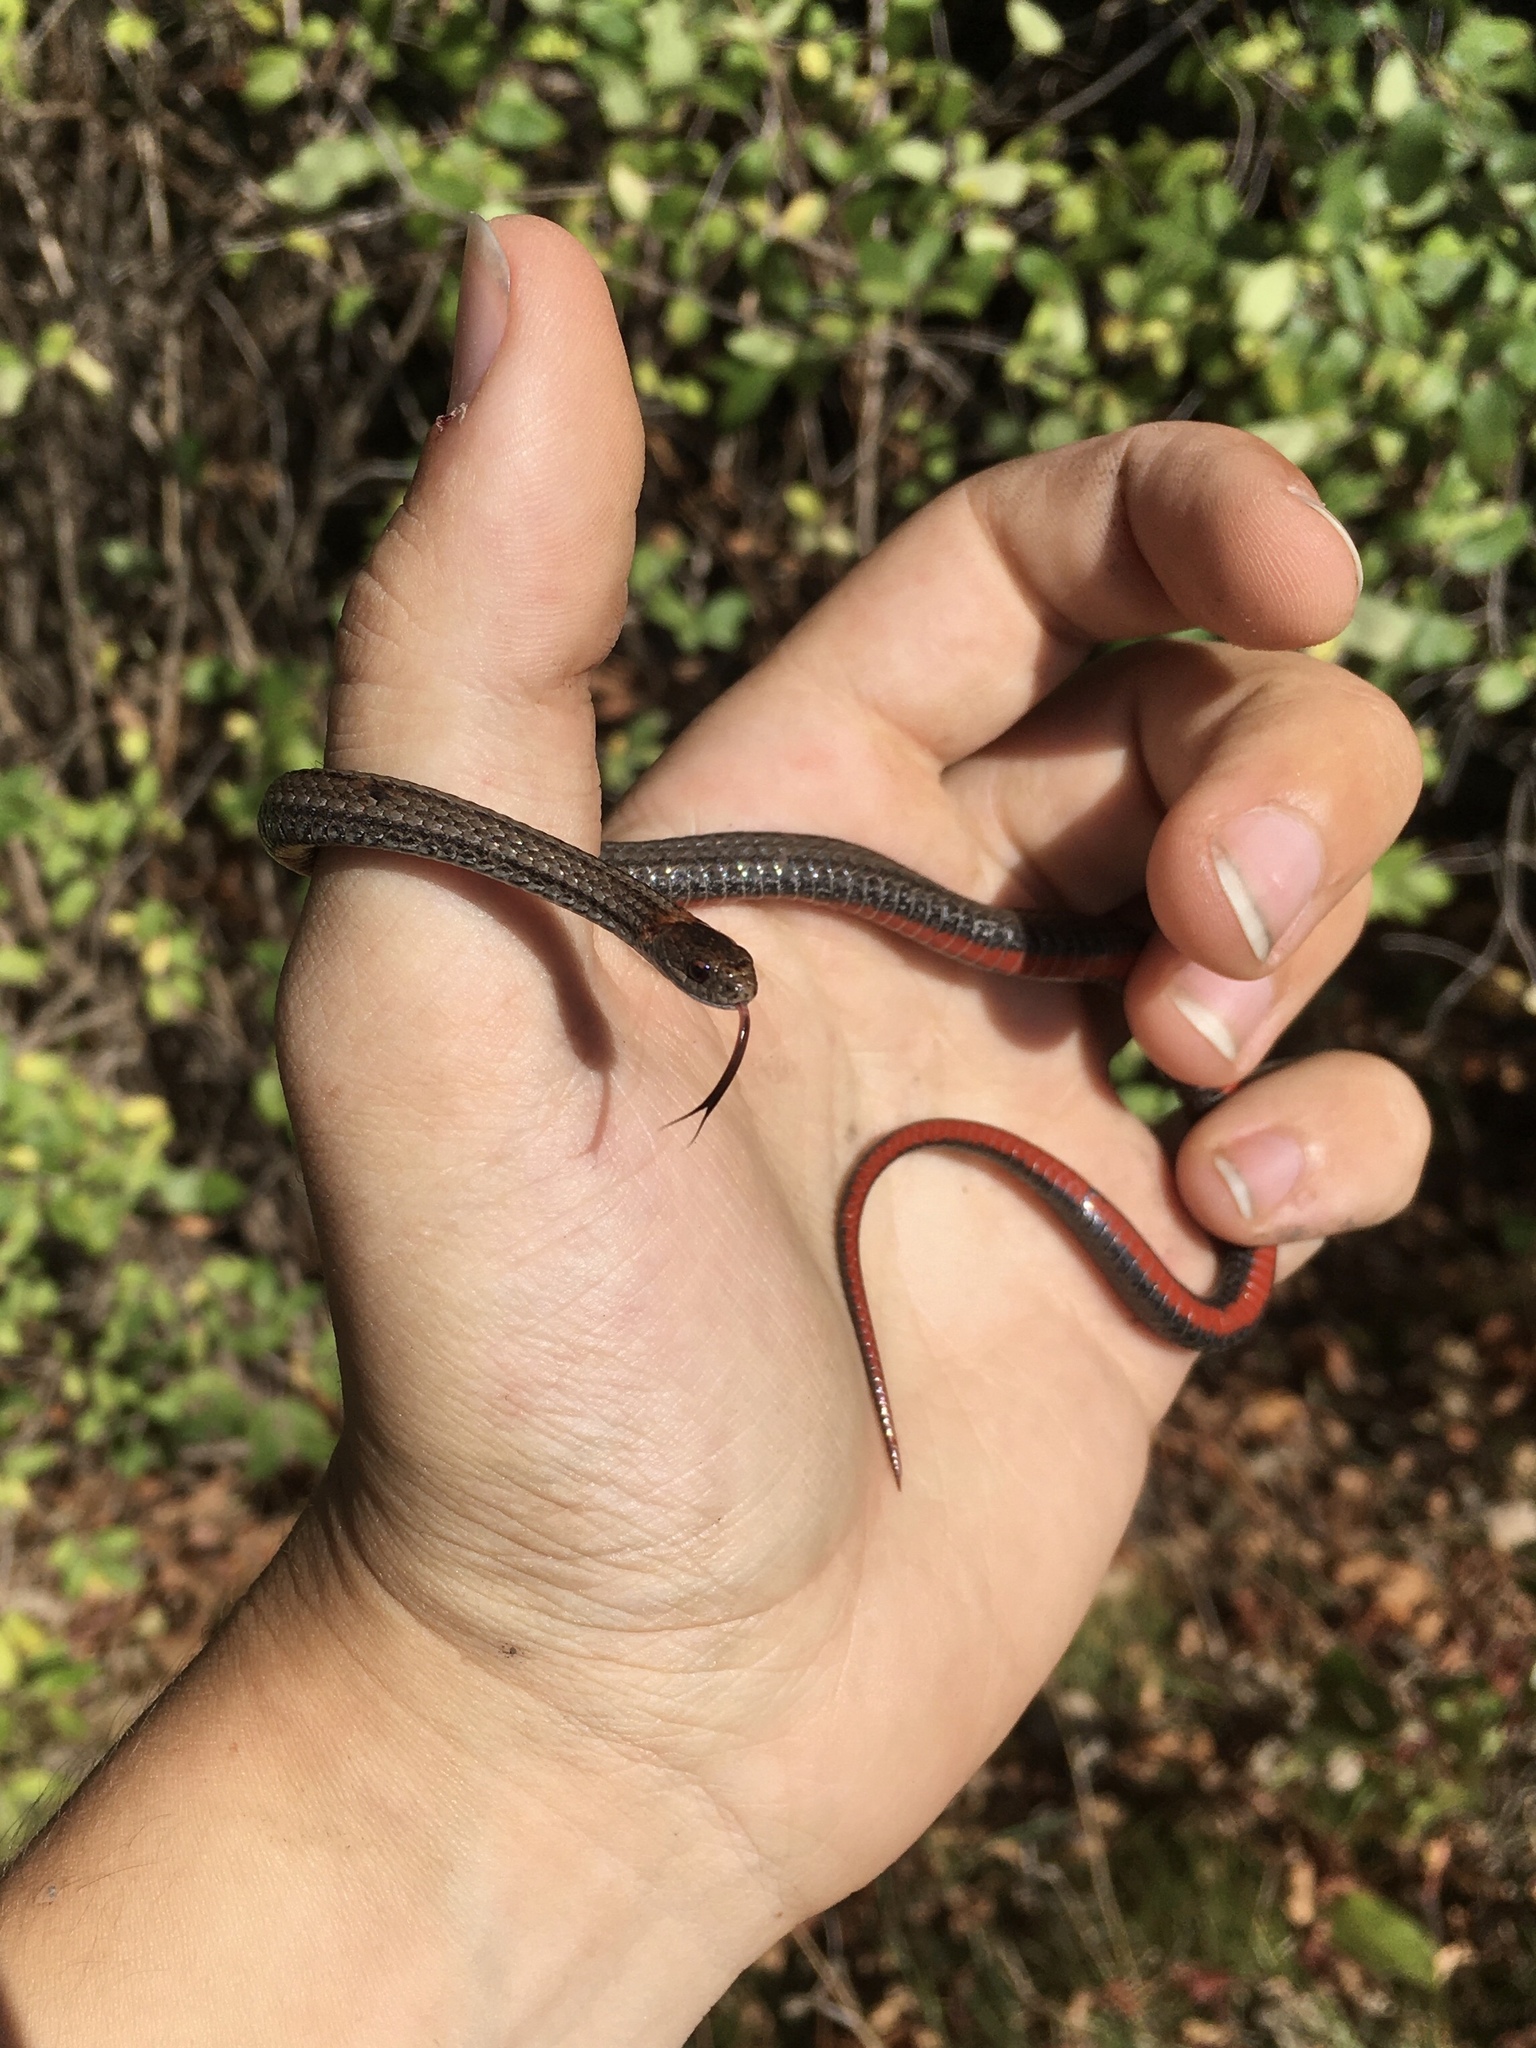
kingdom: Animalia
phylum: Chordata
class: Squamata
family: Colubridae
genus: Storeria
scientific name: Storeria occipitomaculata
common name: Redbelly snake
